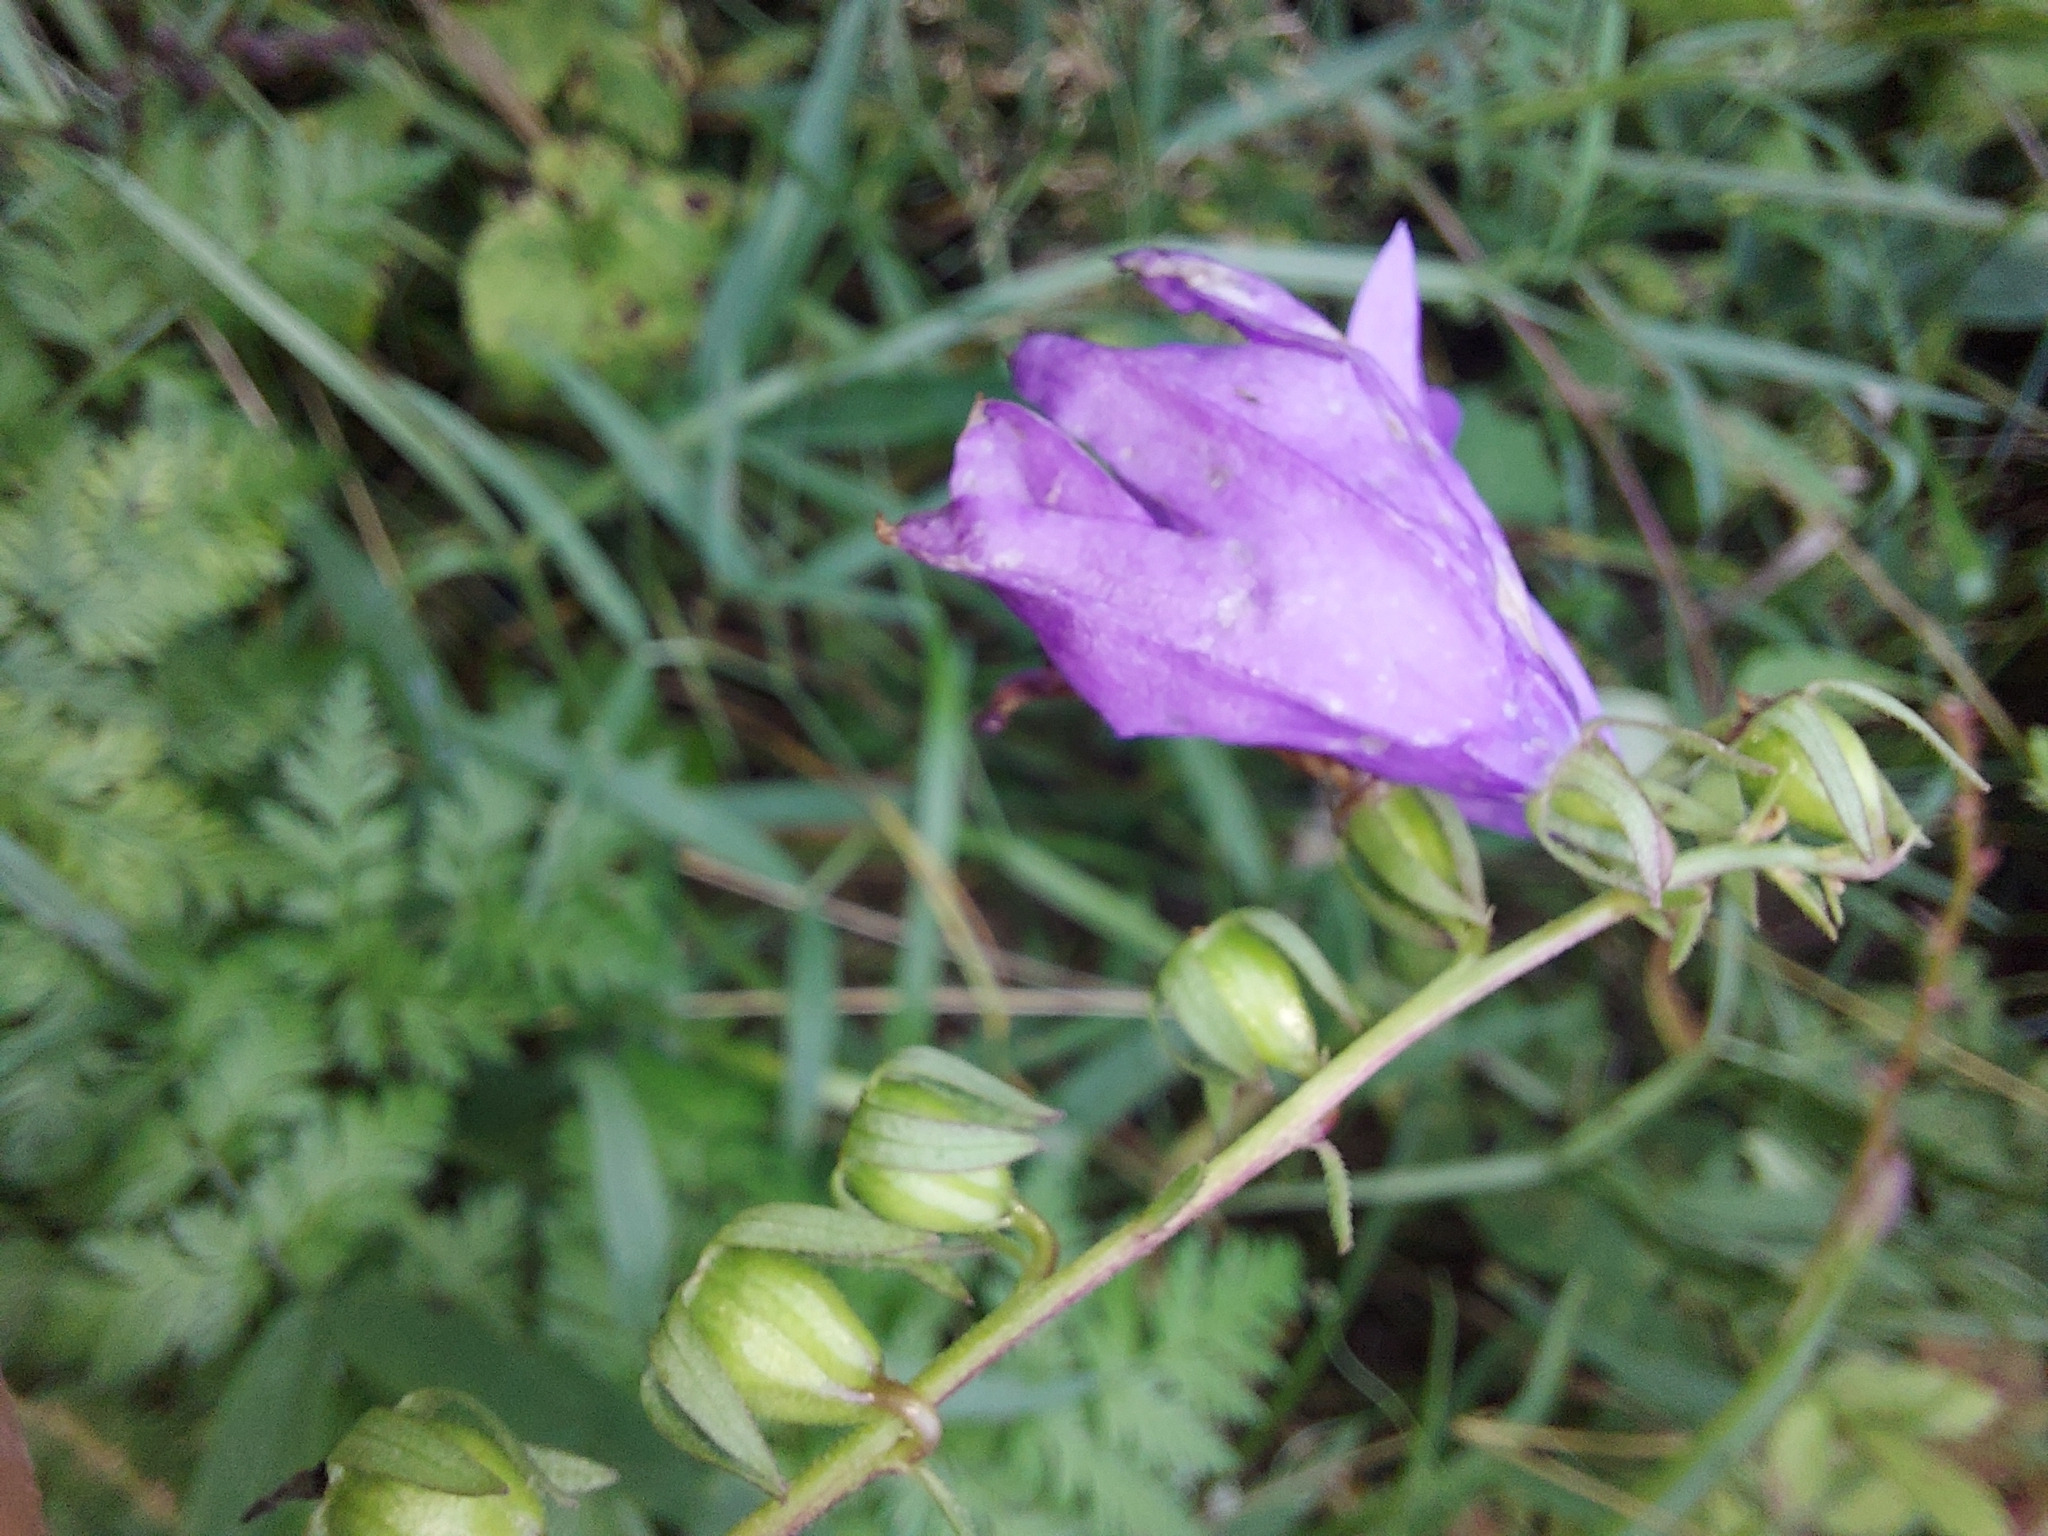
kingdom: Plantae
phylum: Tracheophyta
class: Magnoliopsida
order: Asterales
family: Campanulaceae
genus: Campanula
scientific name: Campanula rapunculoides
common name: Creeping bellflower
